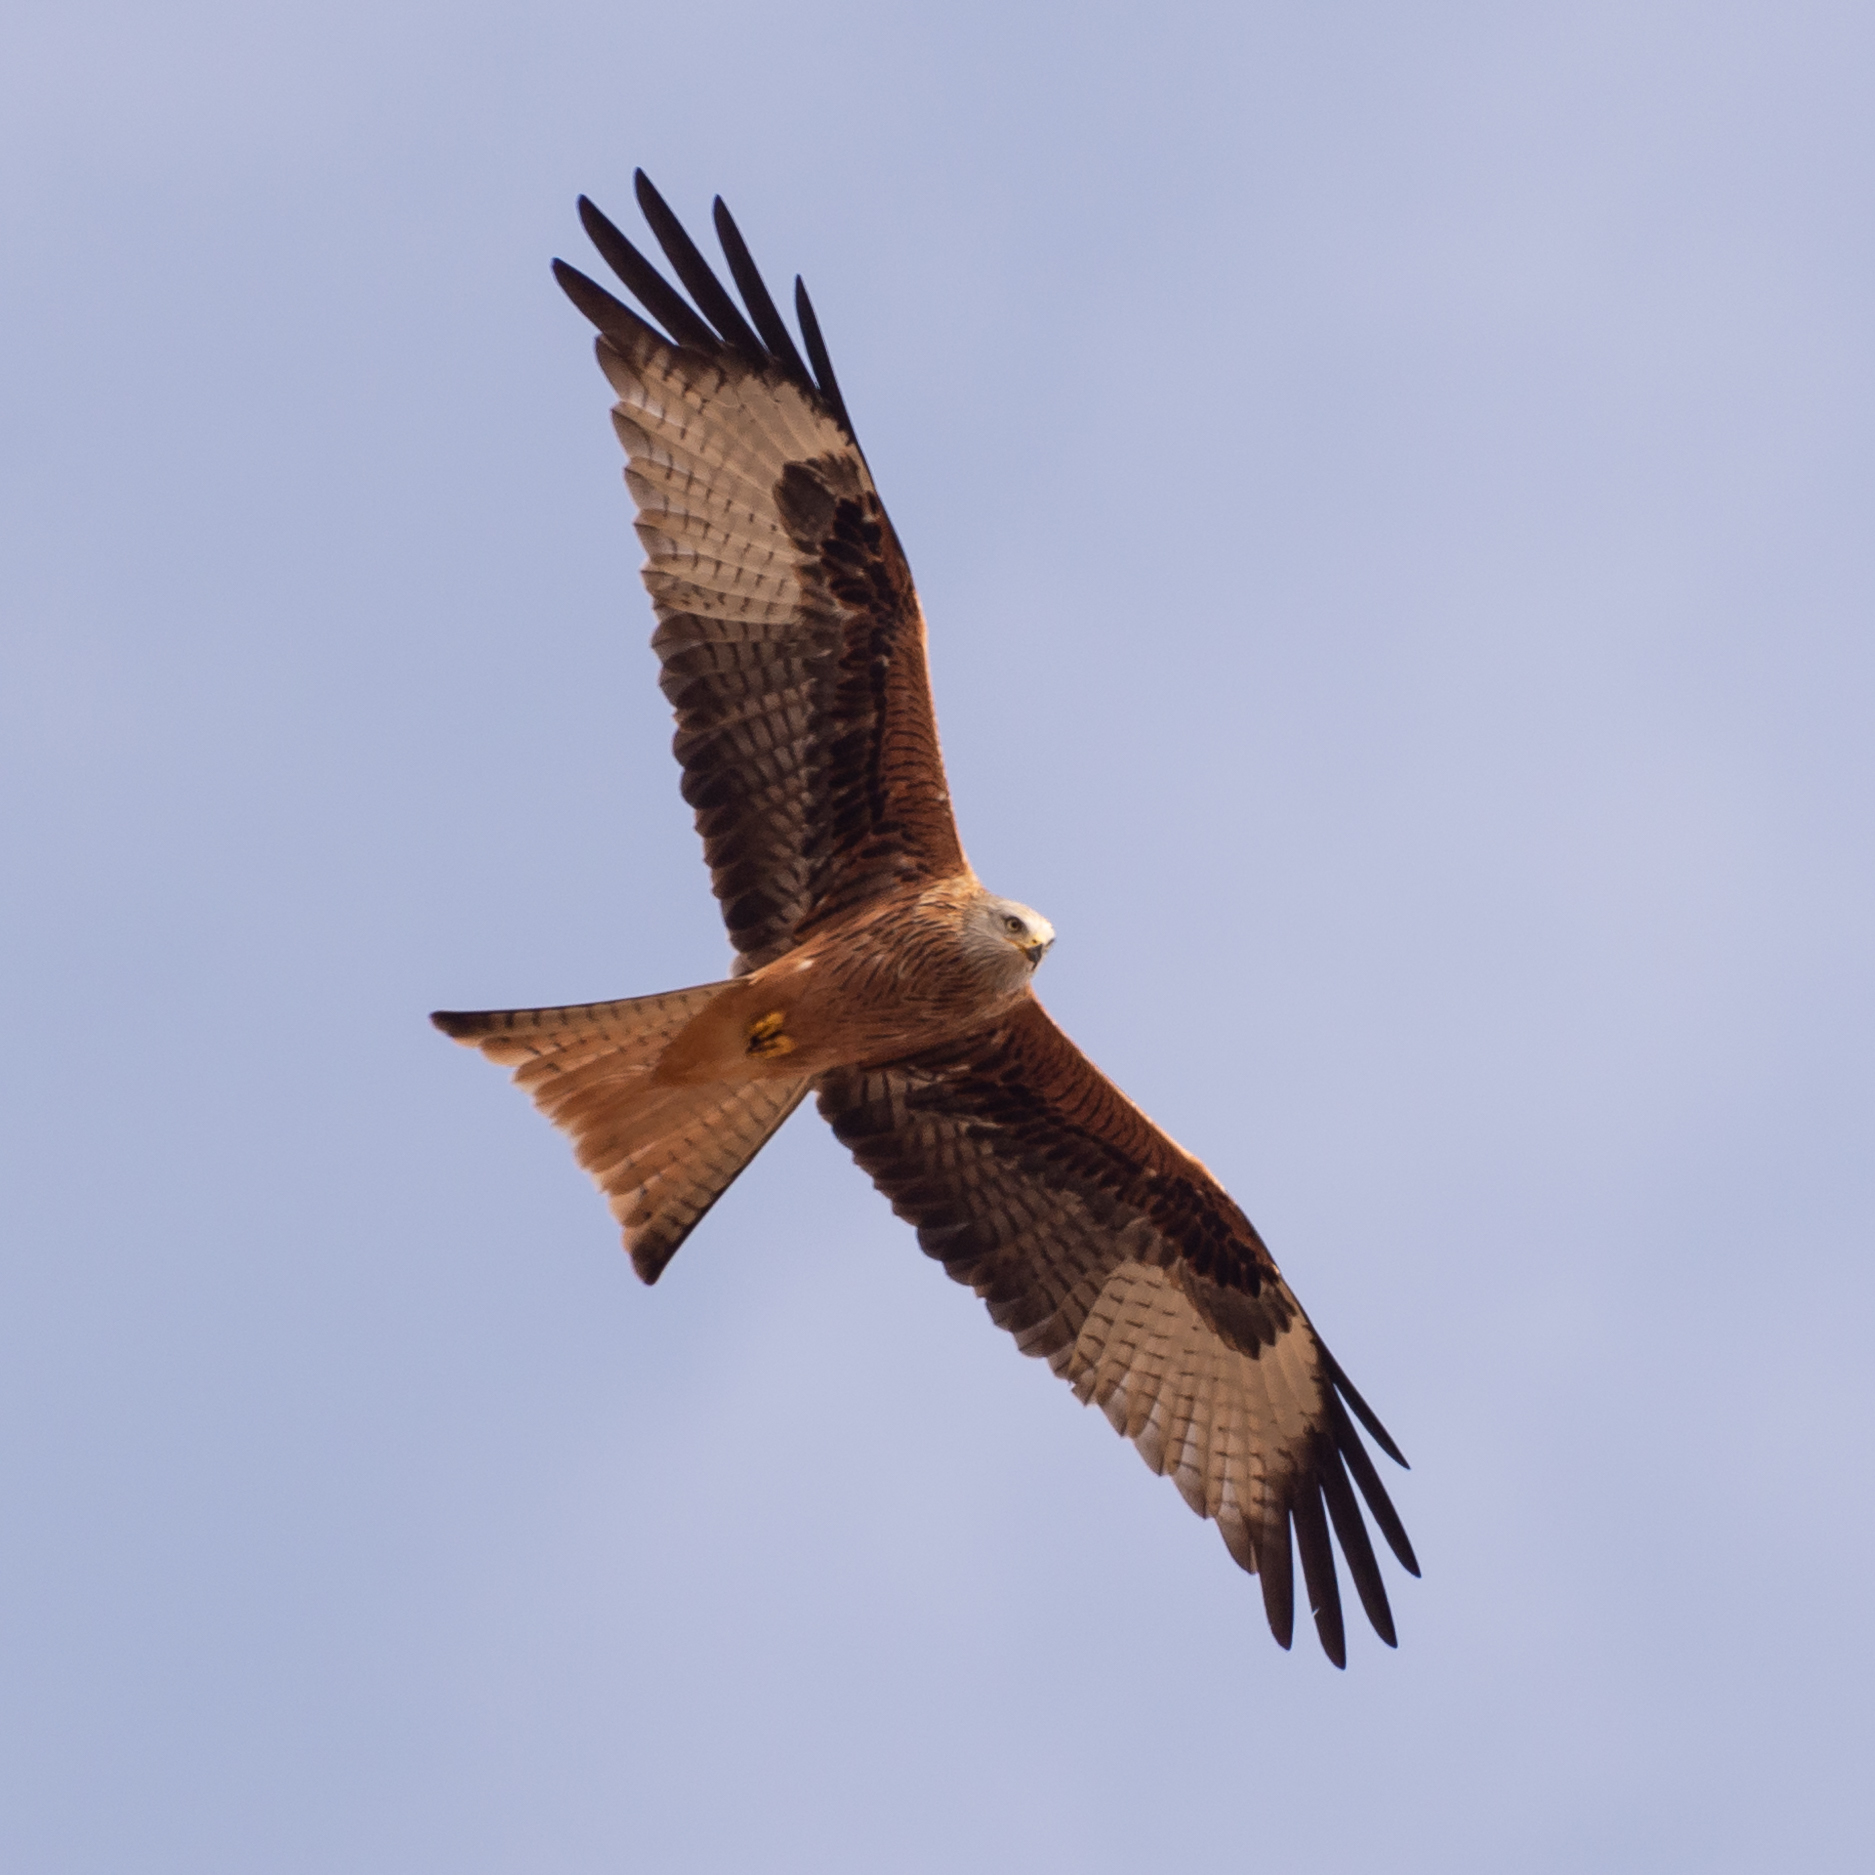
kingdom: Animalia
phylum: Chordata
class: Aves
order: Accipitriformes
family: Accipitridae
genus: Milvus
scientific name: Milvus milvus
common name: Red kite
